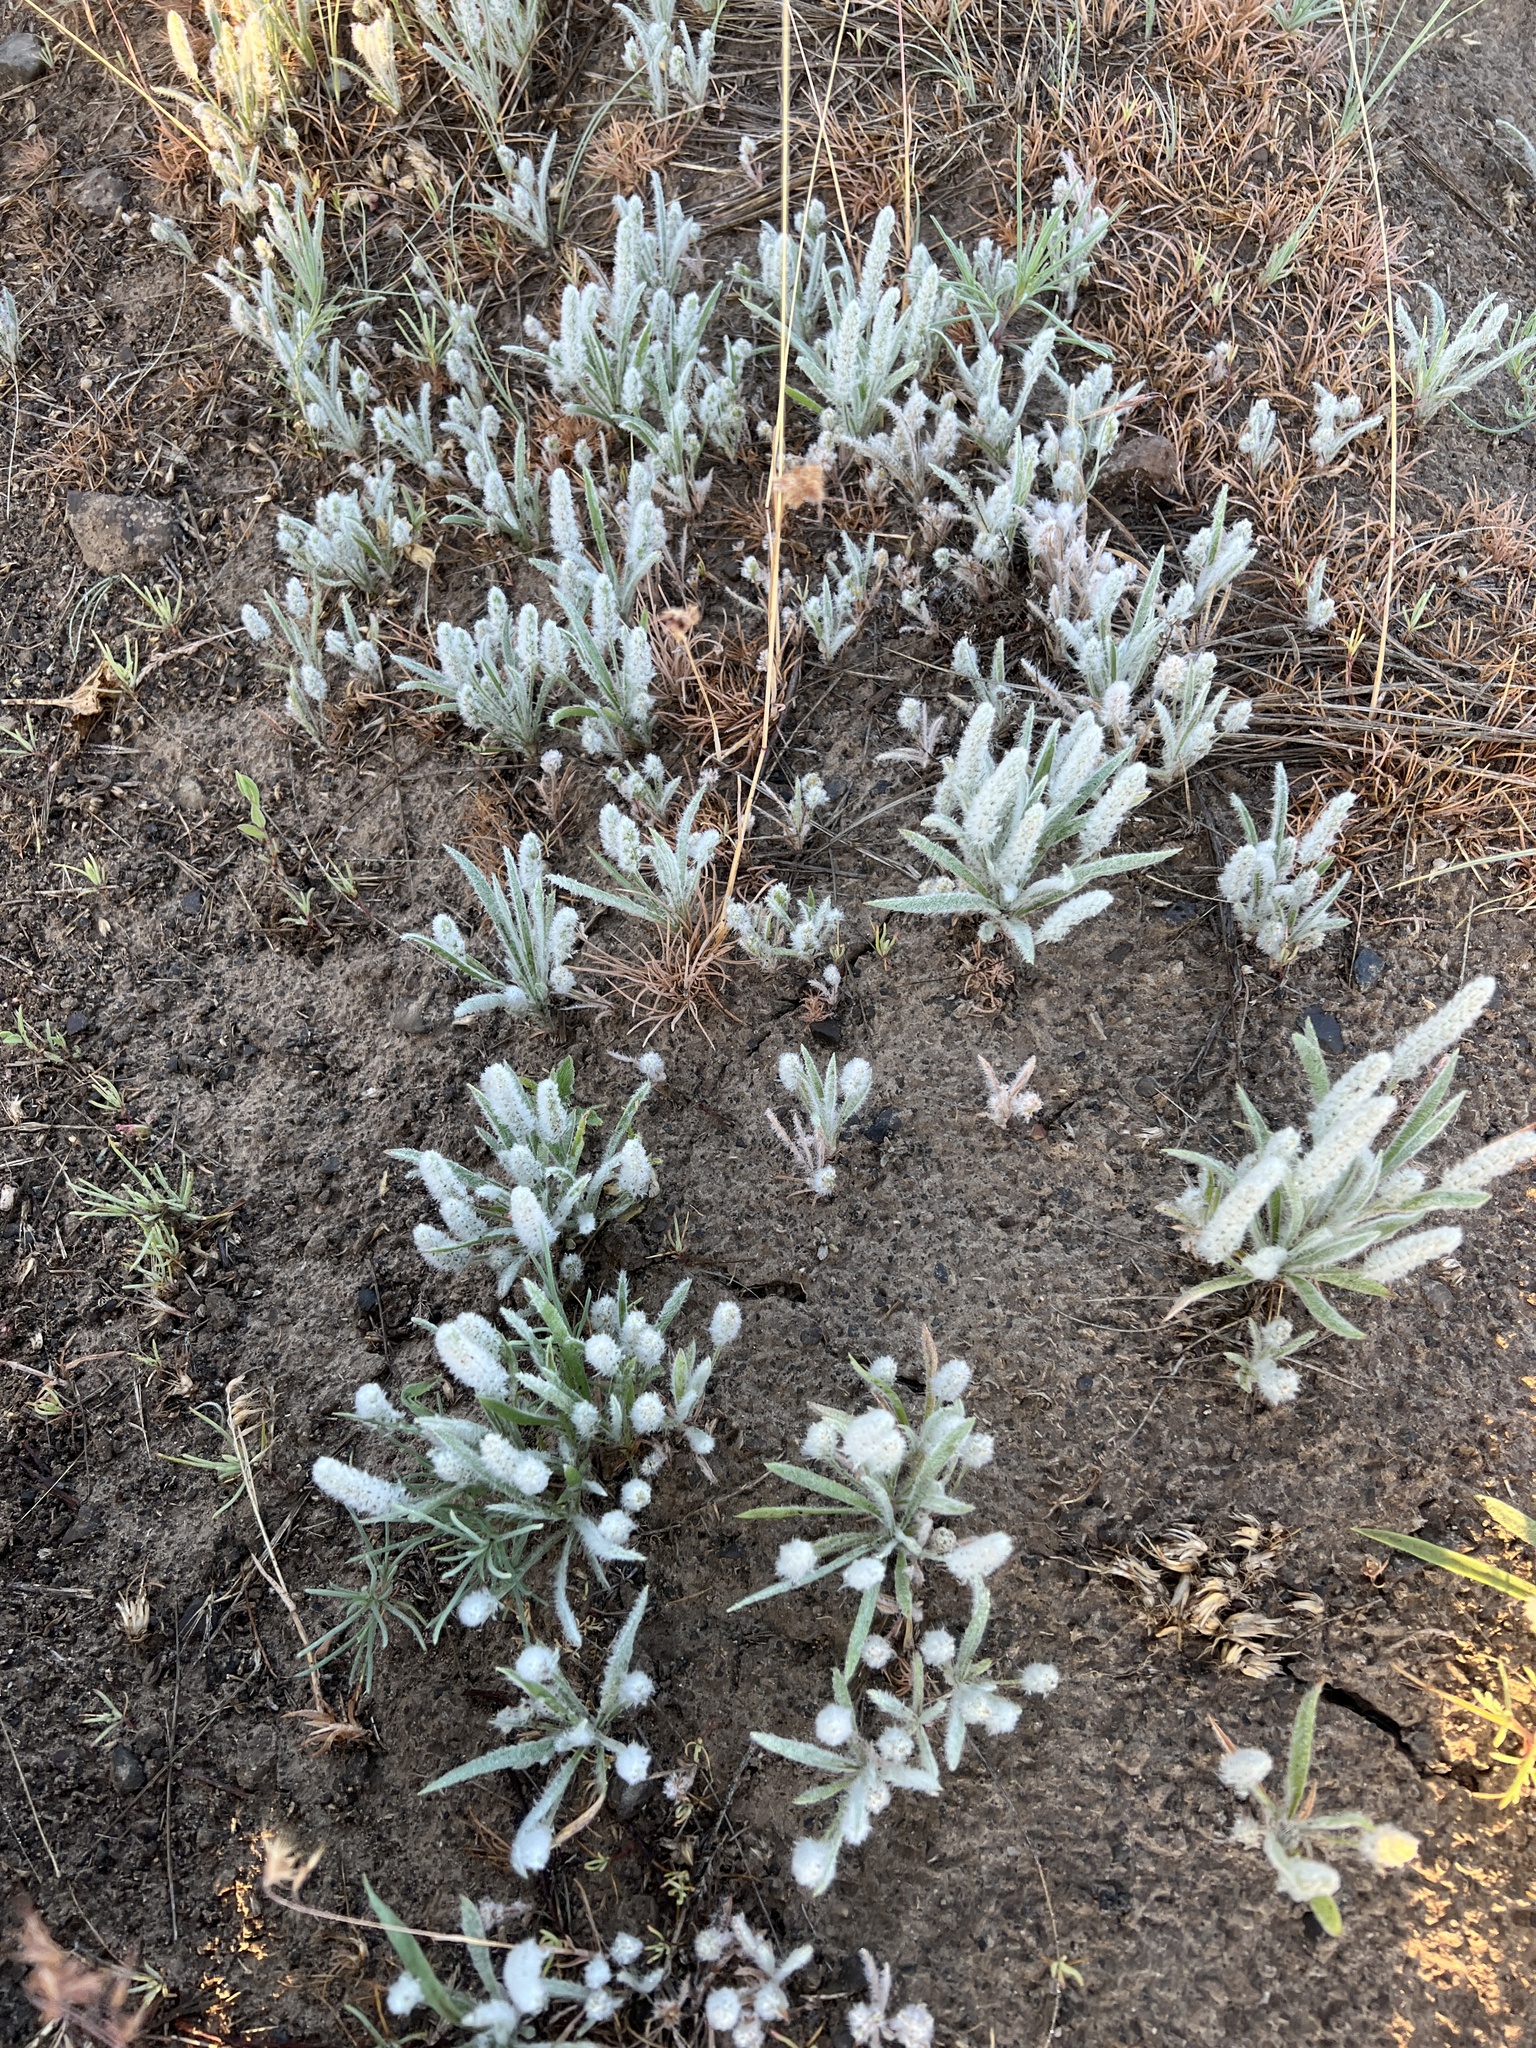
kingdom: Plantae
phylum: Tracheophyta
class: Magnoliopsida
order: Lamiales
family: Plantaginaceae
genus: Plantago
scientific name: Plantago patagonica
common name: Patagonia indian-wheat
